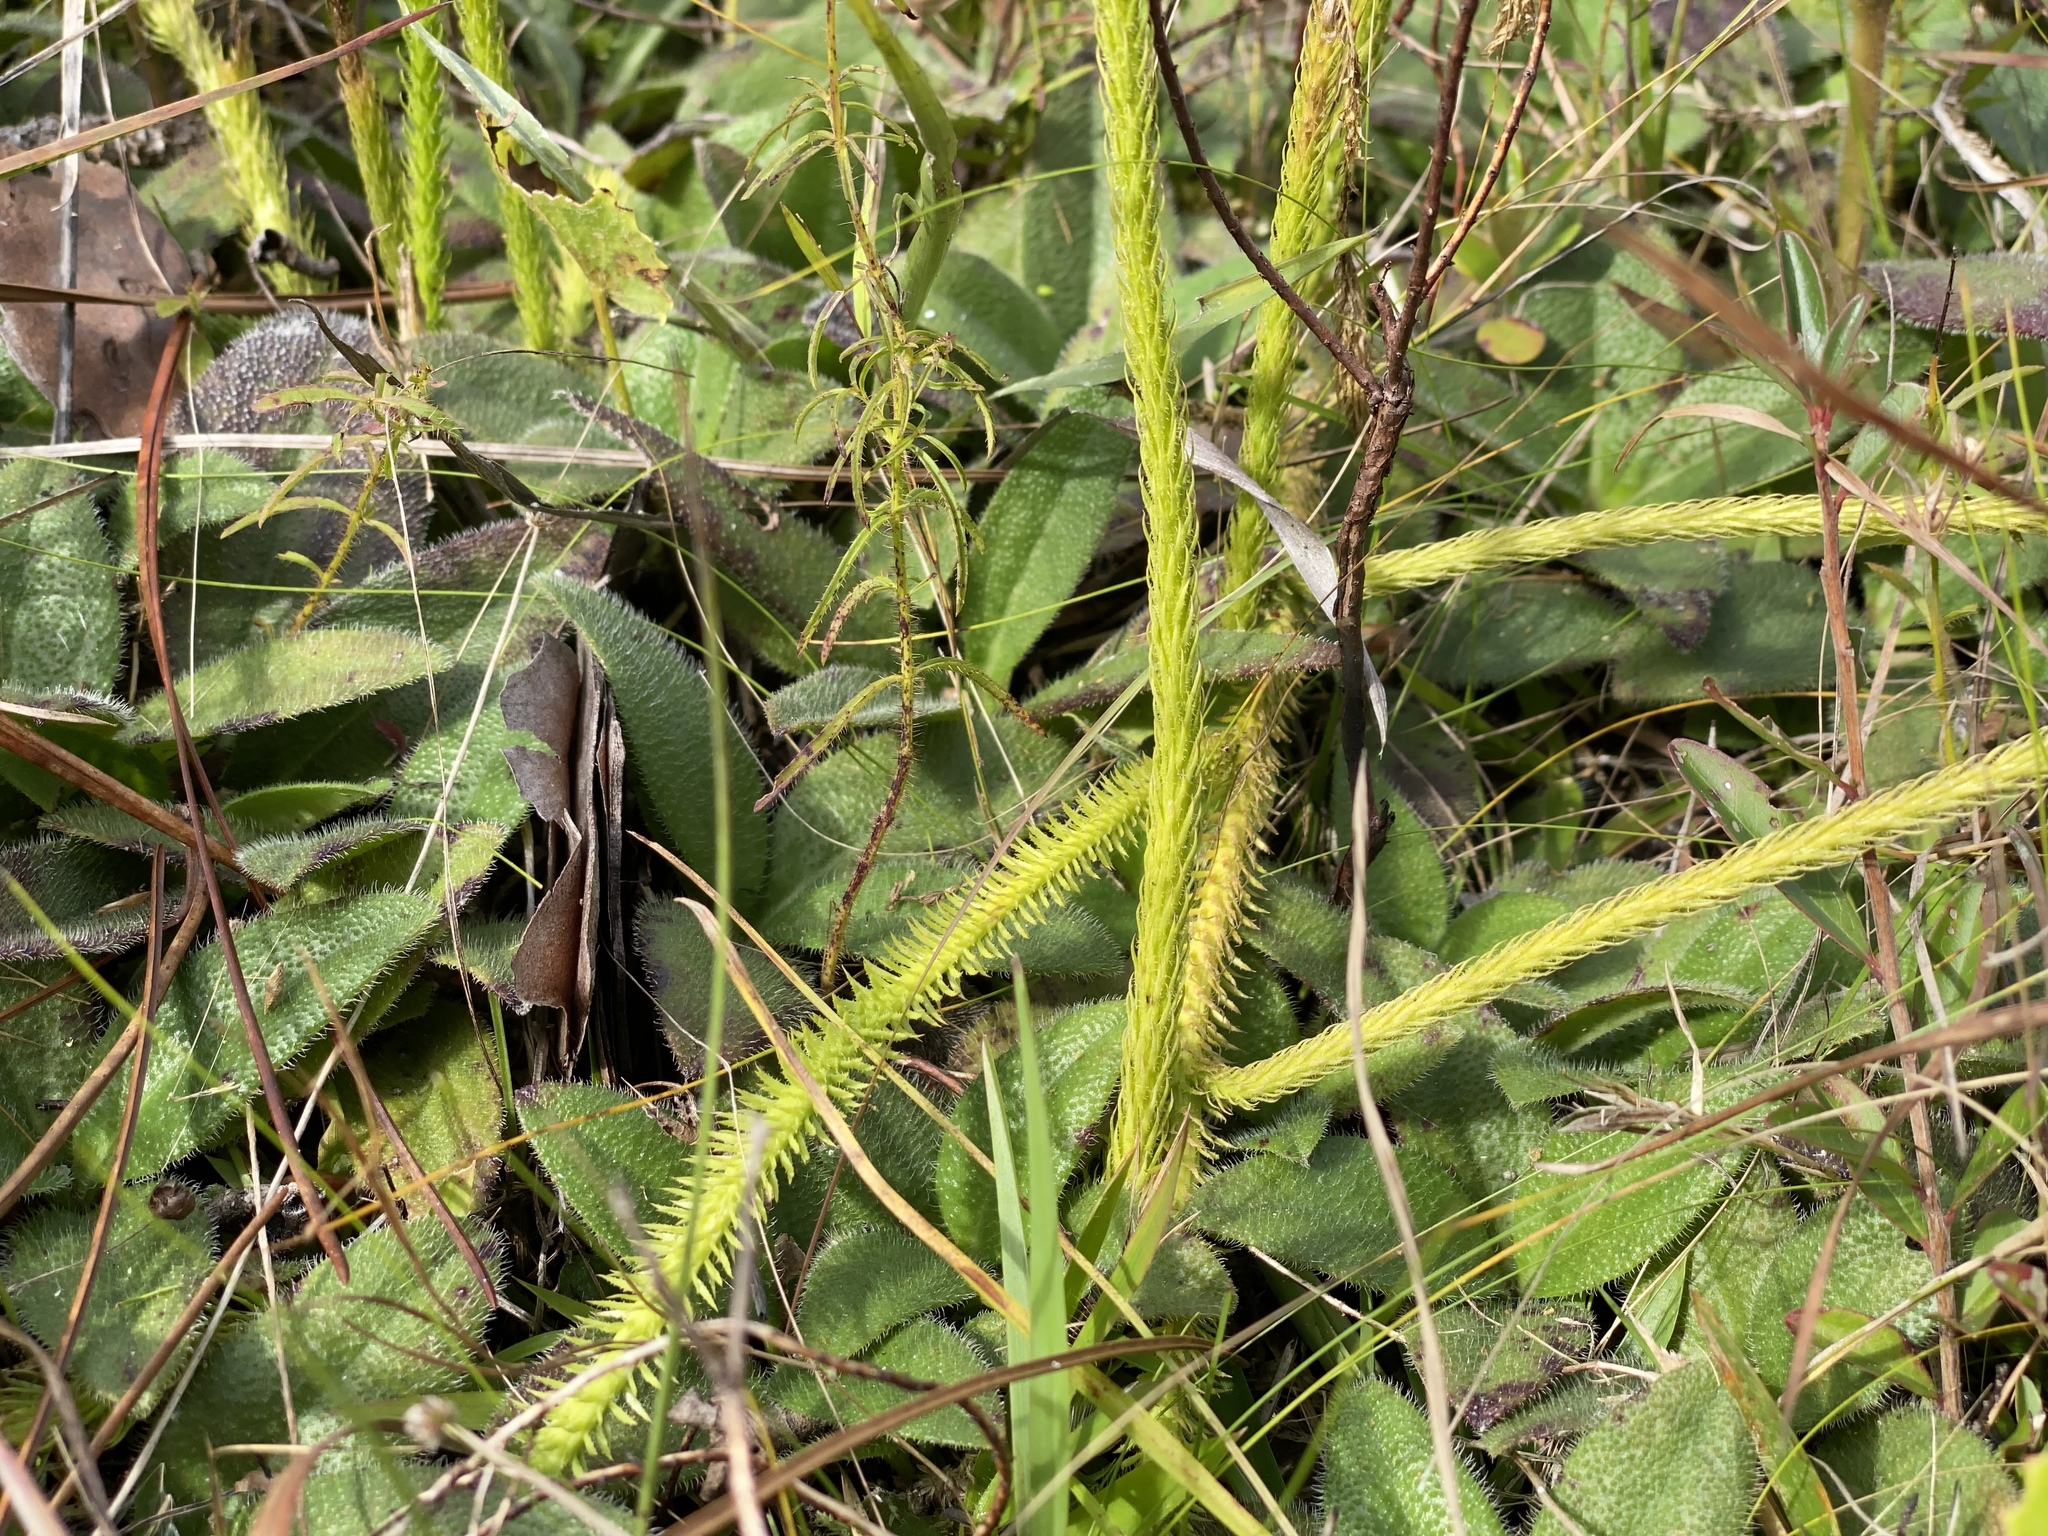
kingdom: Plantae
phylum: Tracheophyta
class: Lycopodiopsida
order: Lycopodiales
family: Lycopodiaceae
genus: Lycopodiella
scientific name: Lycopodiella alopecuroides
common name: Foxtail clubmoss
